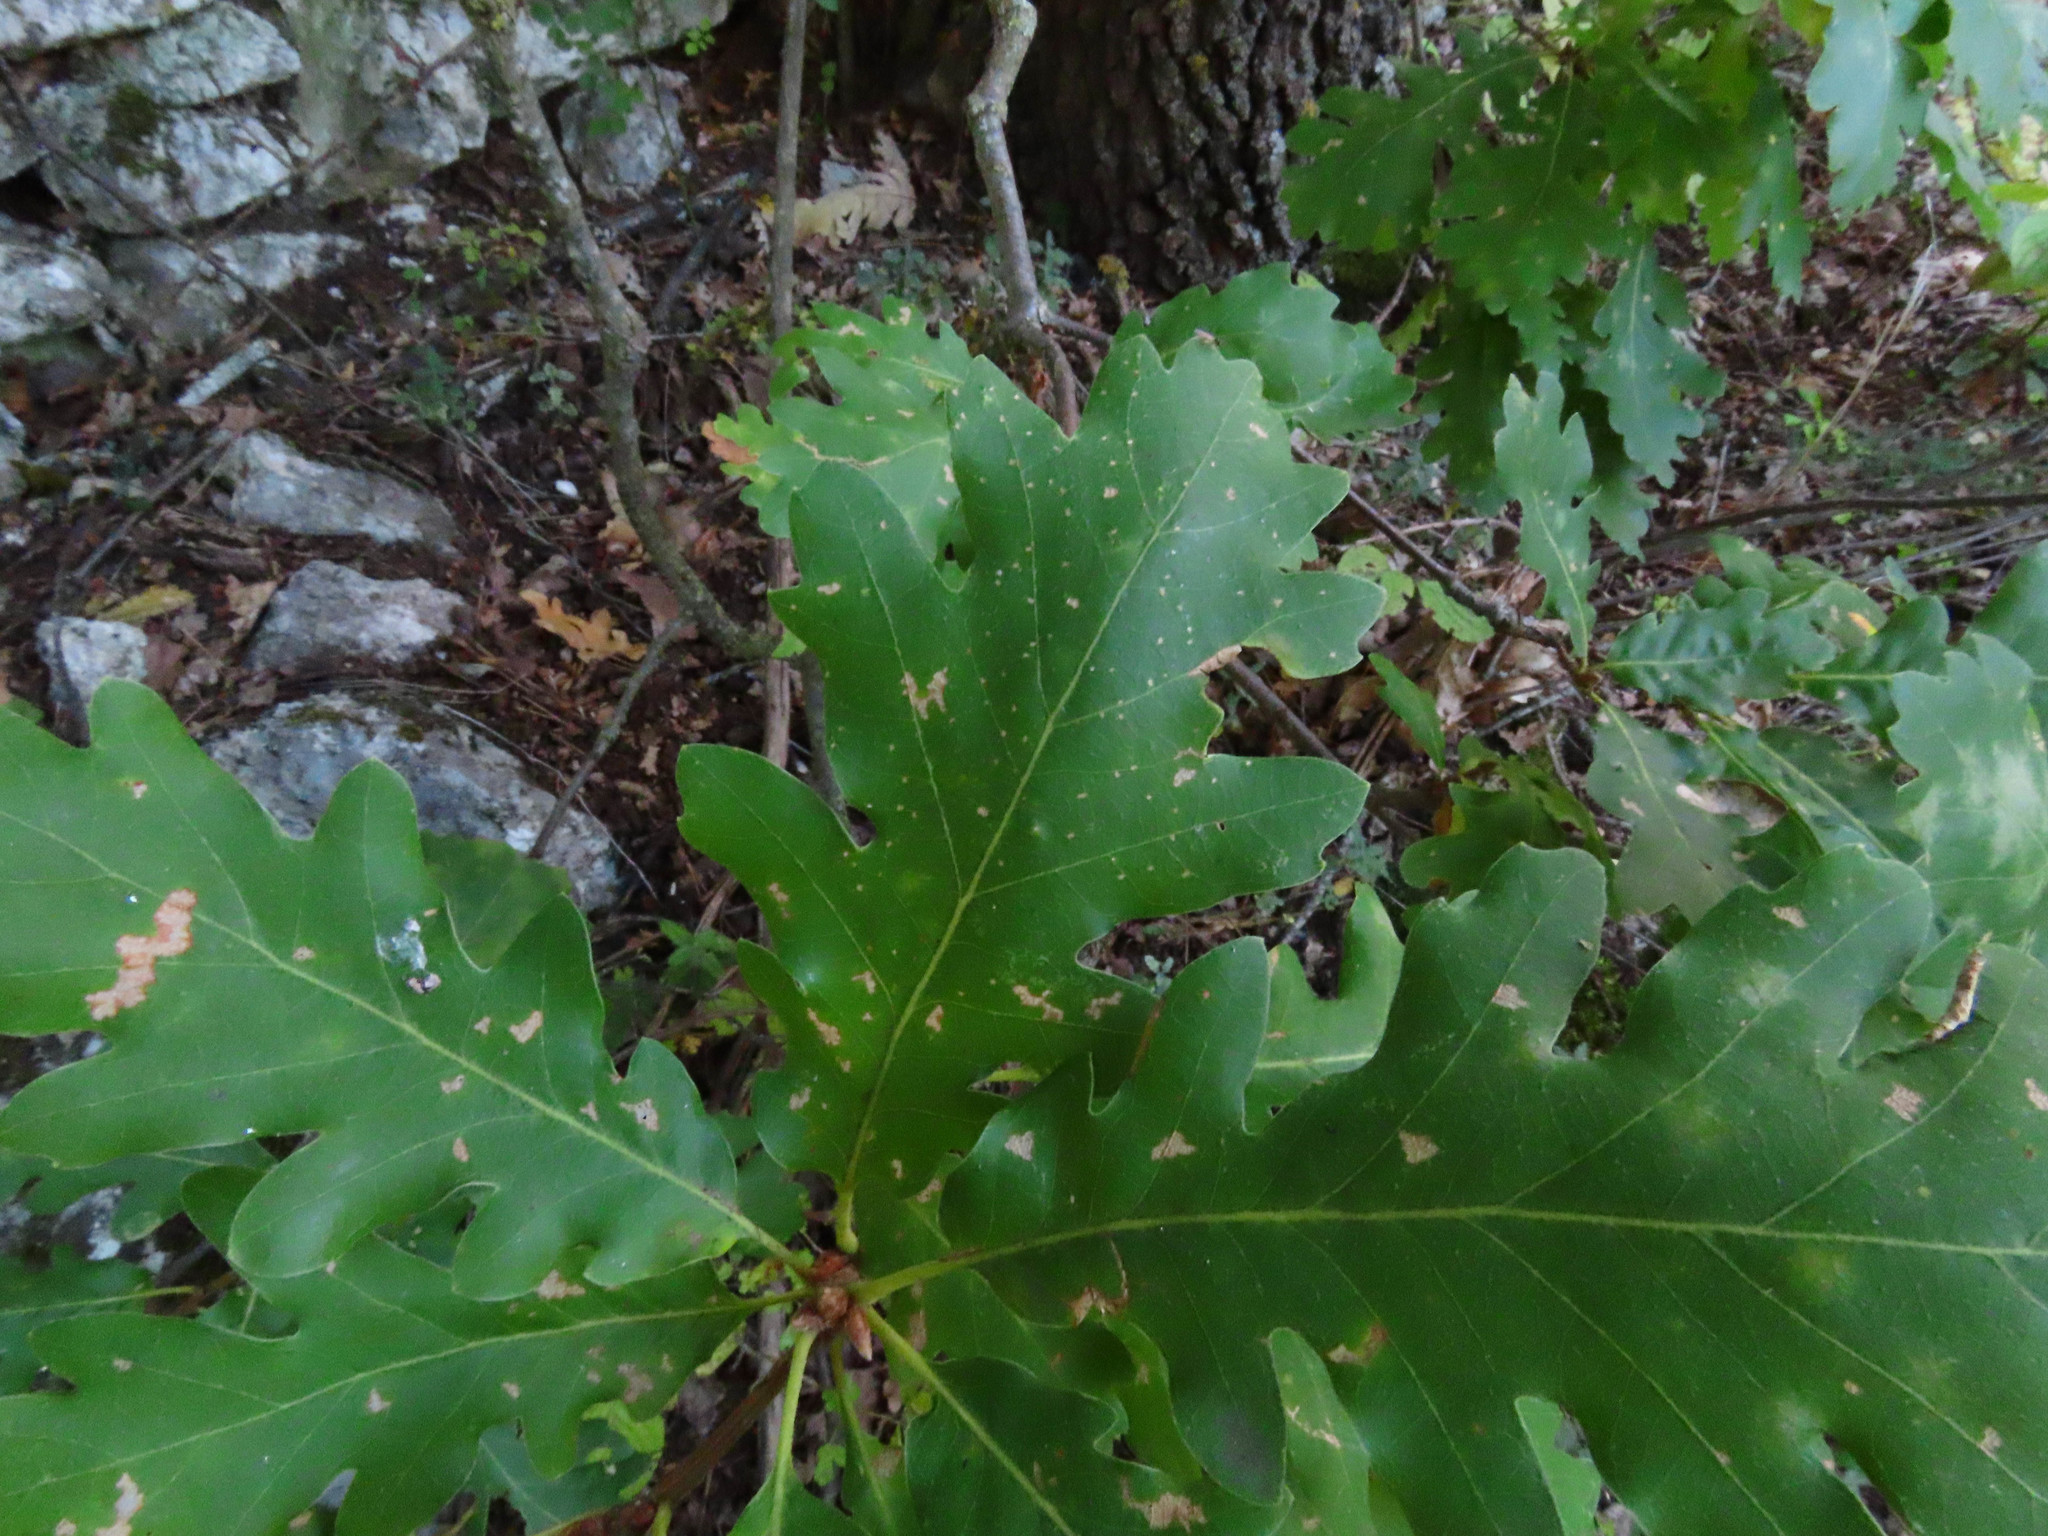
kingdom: Plantae
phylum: Tracheophyta
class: Magnoliopsida
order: Fagales
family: Fagaceae
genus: Quercus
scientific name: Quercus pubescens
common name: Downy oak
